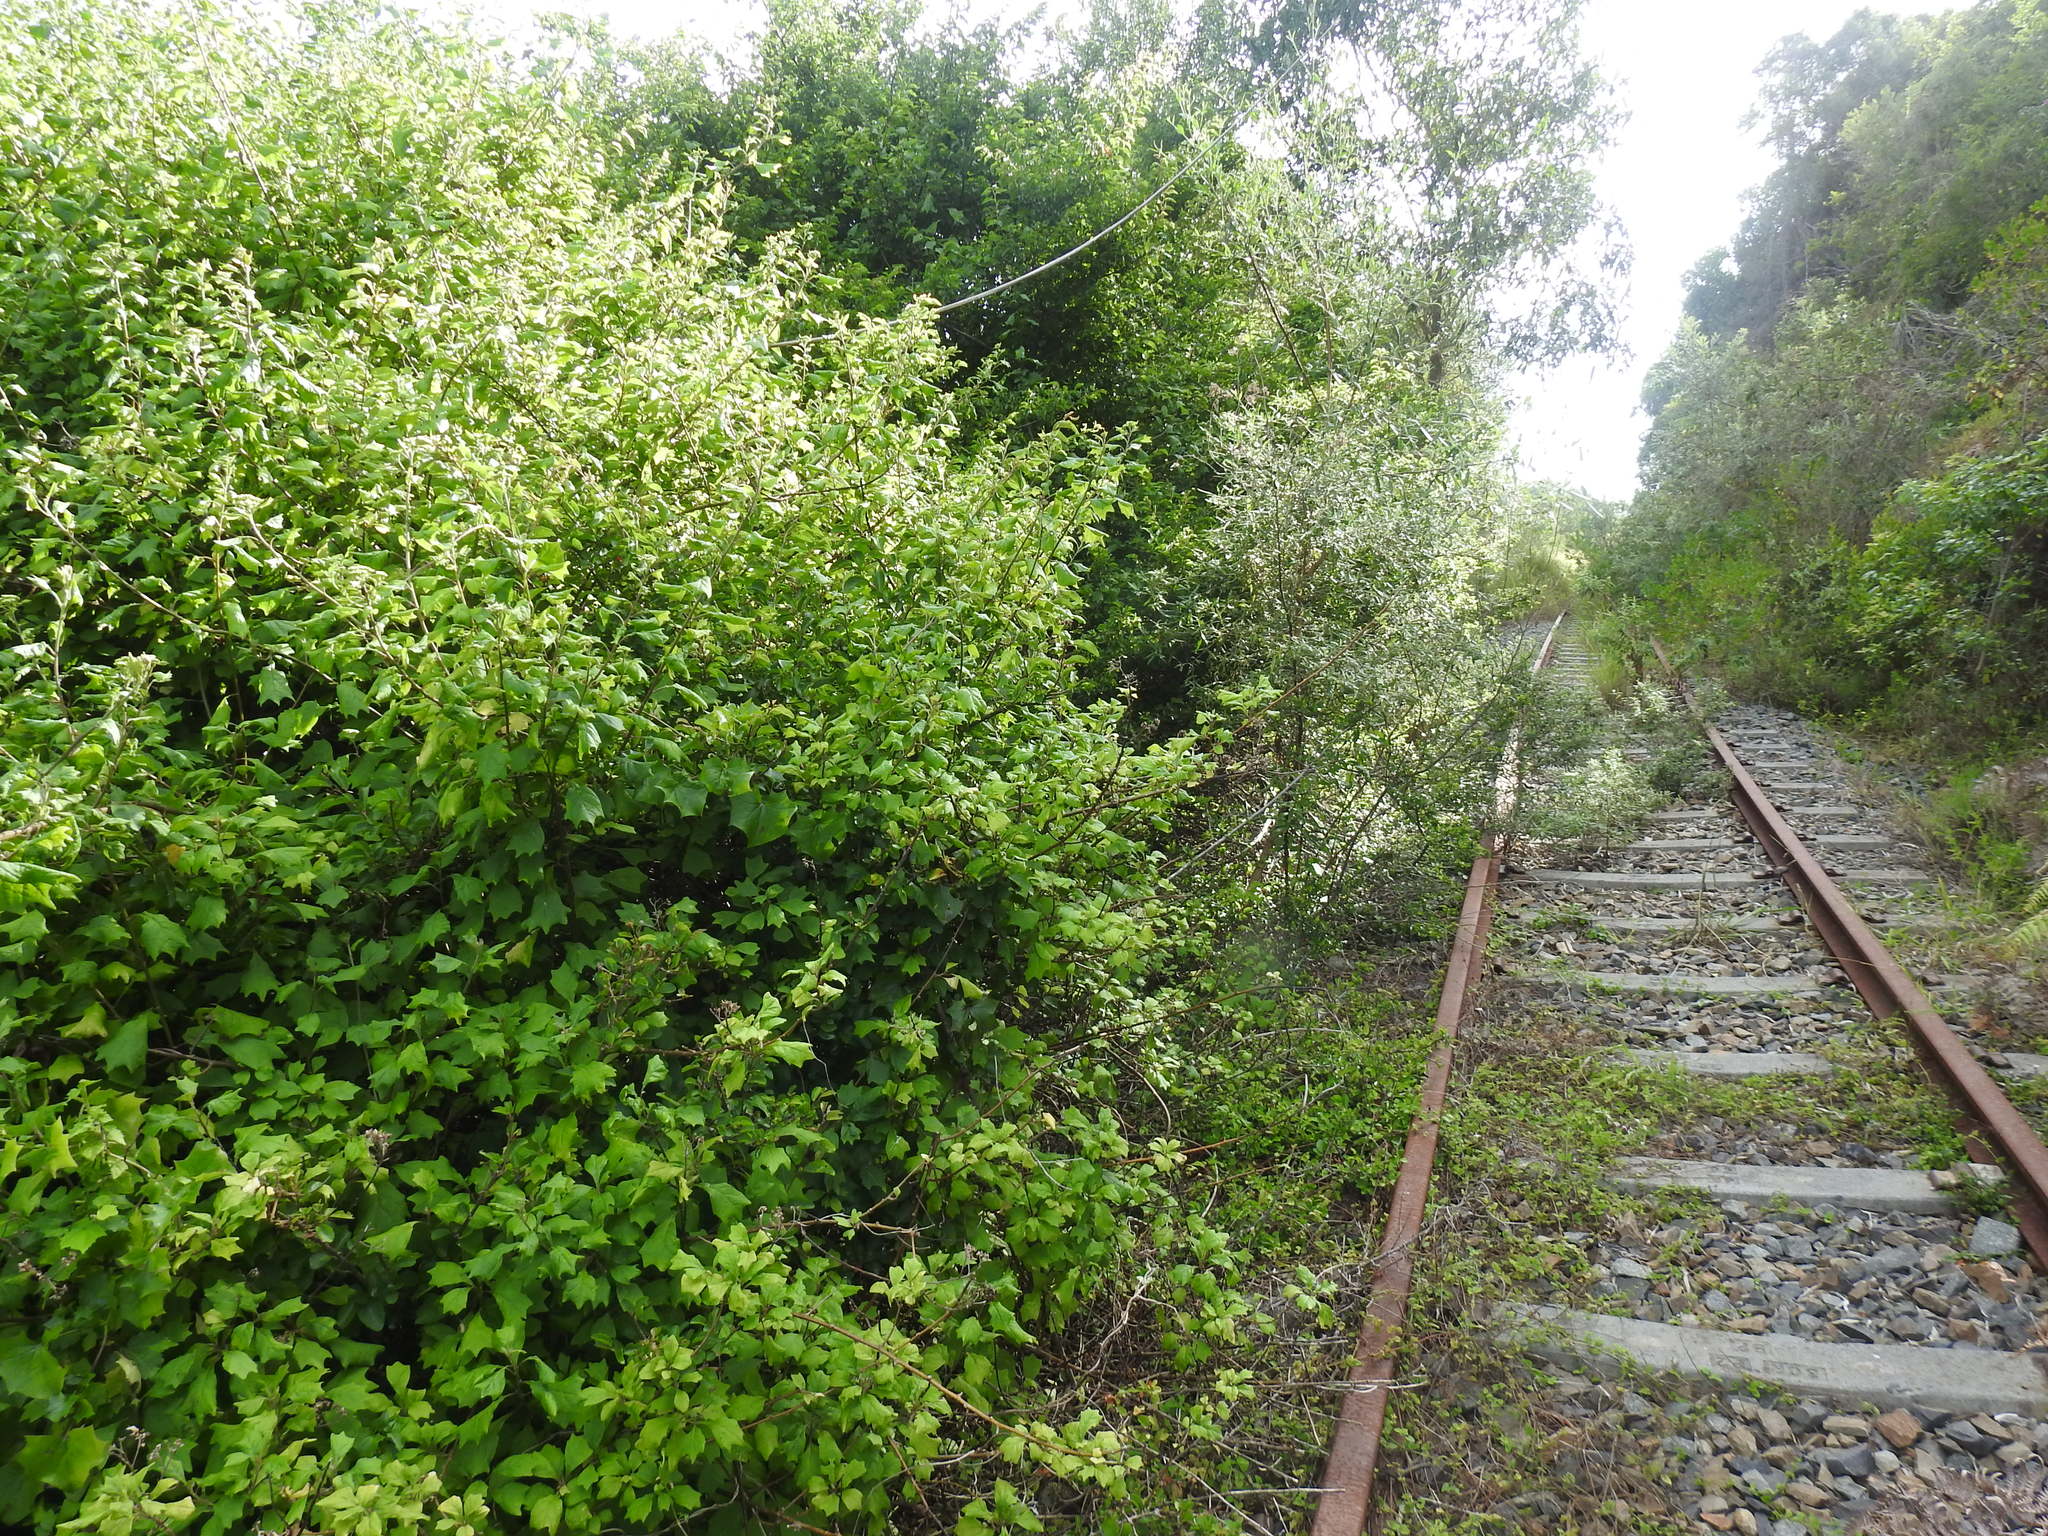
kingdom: Plantae
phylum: Tracheophyta
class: Magnoliopsida
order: Asterales
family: Asteraceae
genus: Gymnanthemum
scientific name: Gymnanthemum capense
